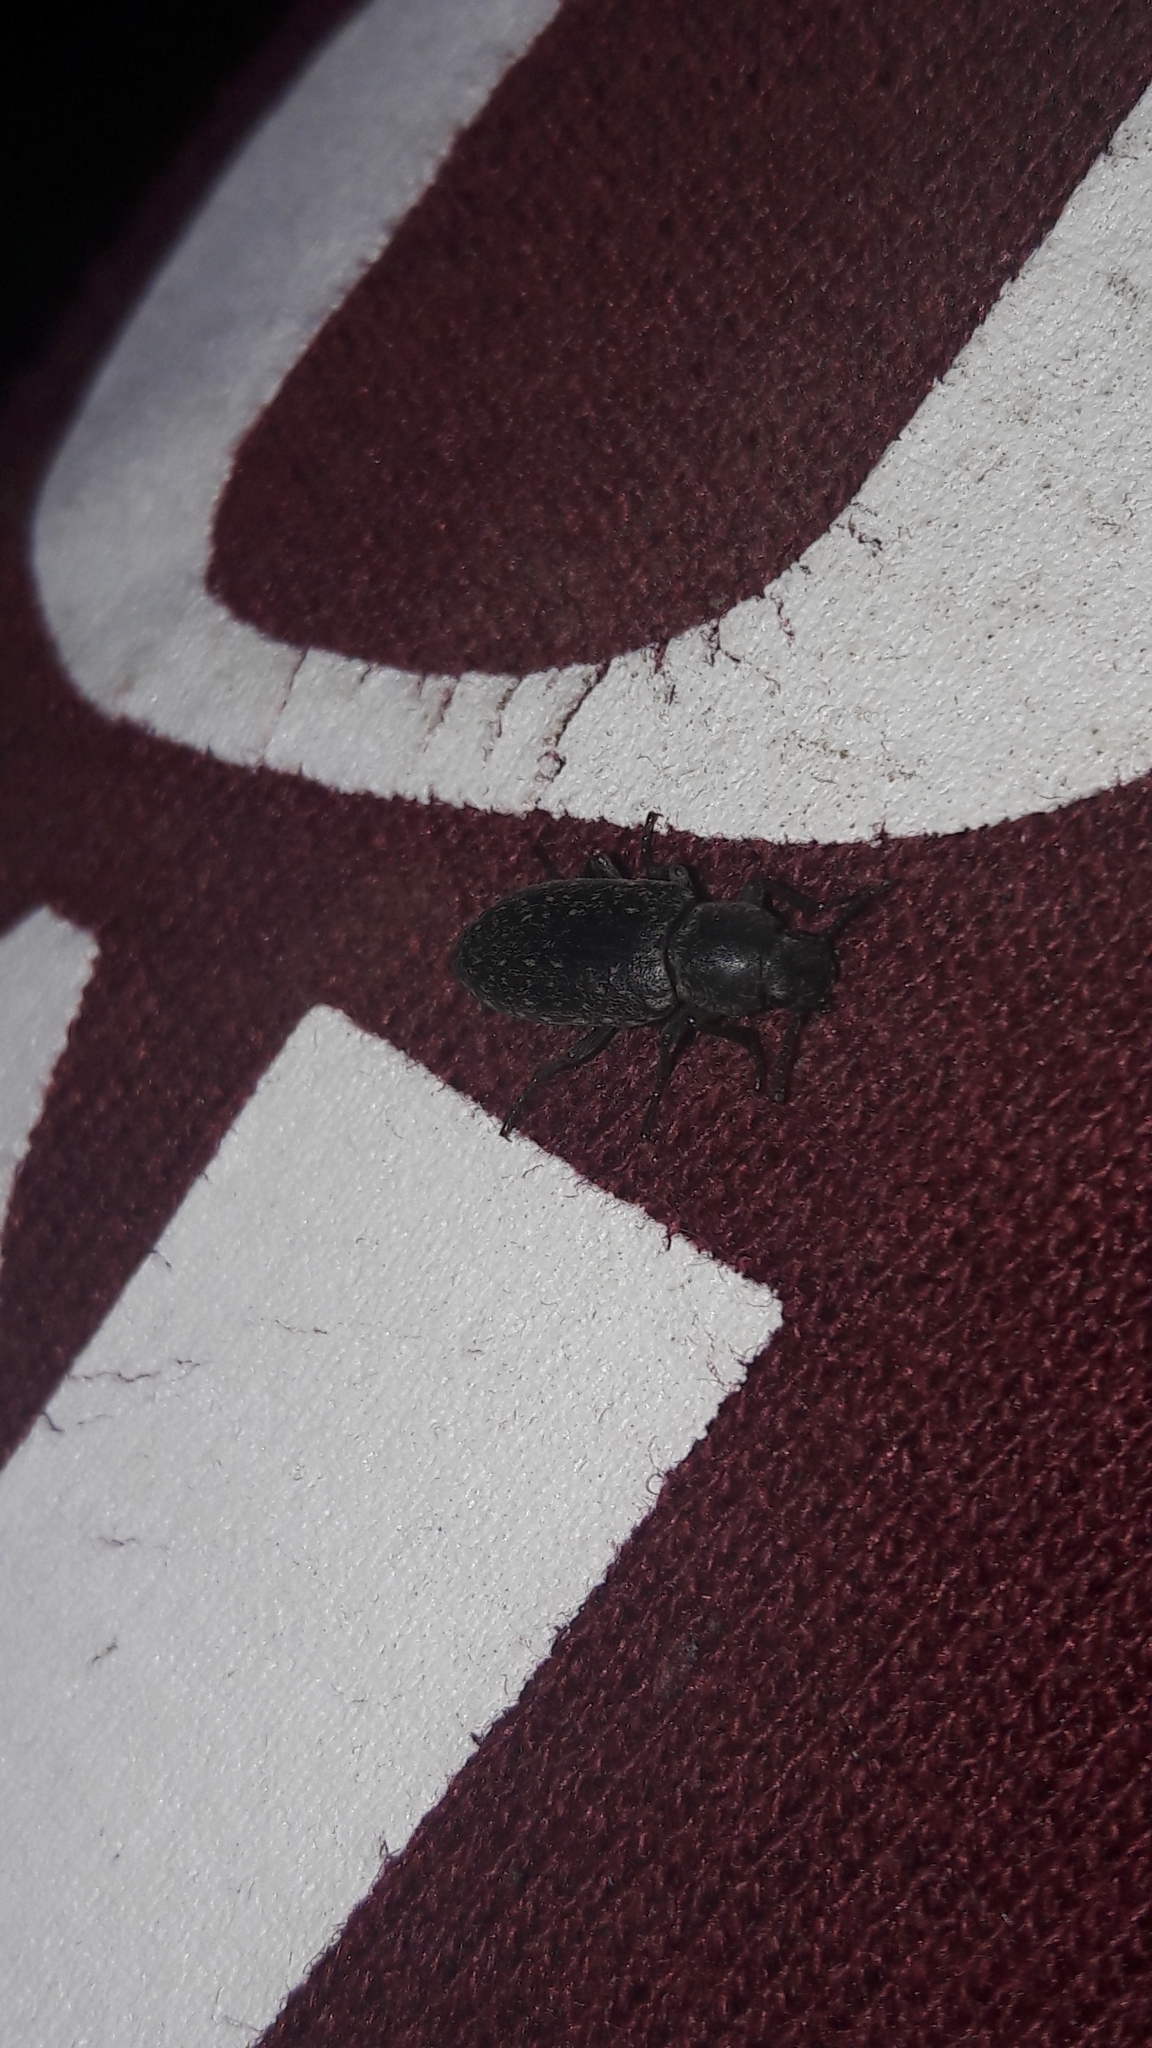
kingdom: Animalia
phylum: Arthropoda
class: Insecta
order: Coleoptera
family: Tenebrionidae
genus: Imatismus
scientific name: Imatismus
